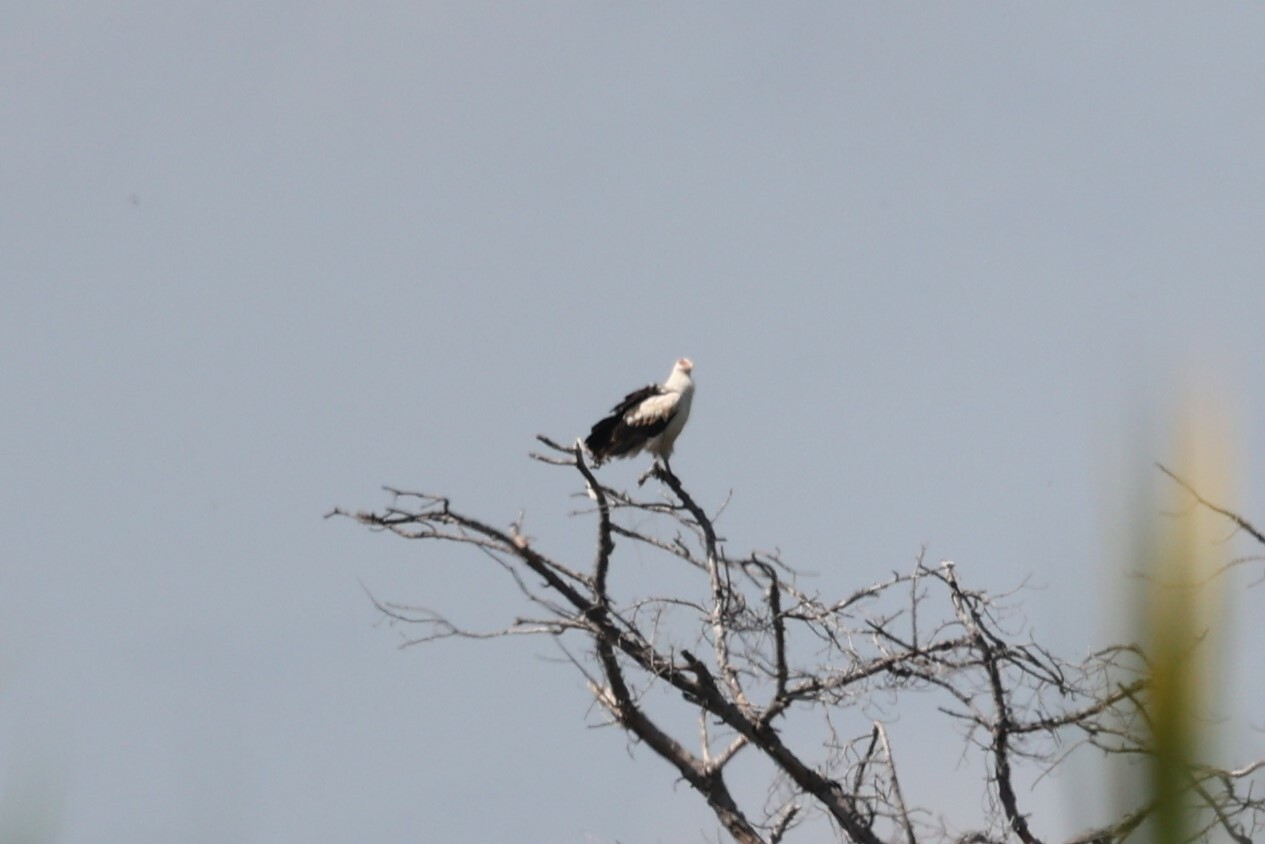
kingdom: Animalia
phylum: Chordata
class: Aves
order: Accipitriformes
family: Accipitridae
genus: Gypohierax
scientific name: Gypohierax angolensis
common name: Palm-nut vulture
